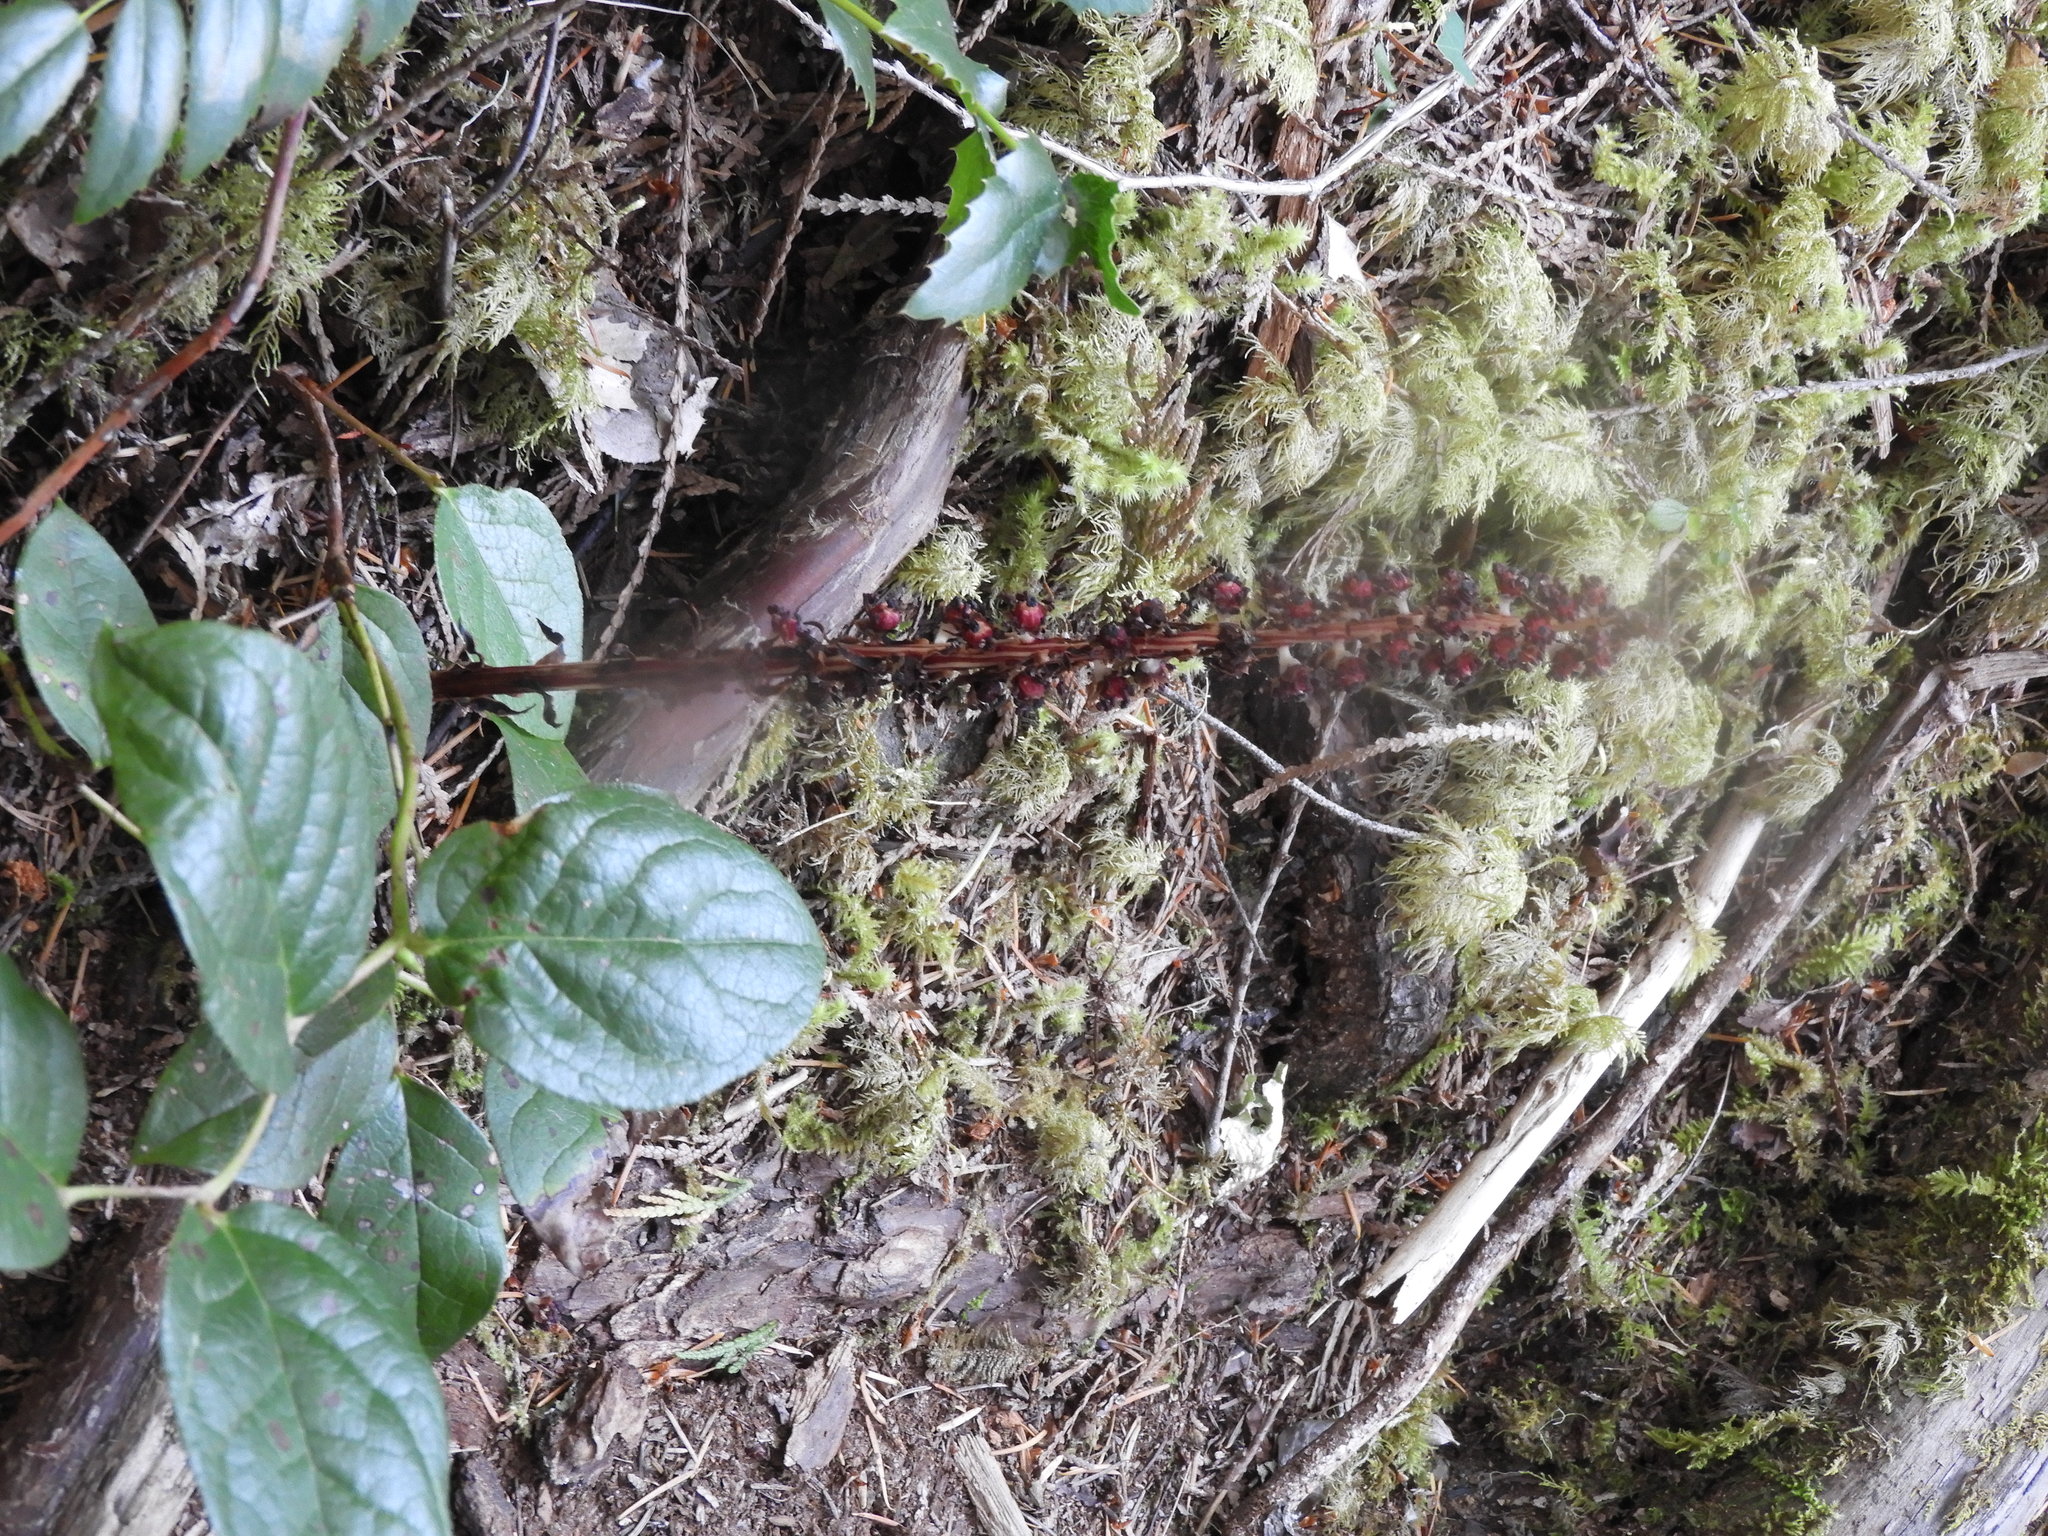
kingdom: Plantae
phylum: Tracheophyta
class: Magnoliopsida
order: Ericales
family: Ericaceae
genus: Allotropa
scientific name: Allotropa virgata
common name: Candy-striped allotropa
